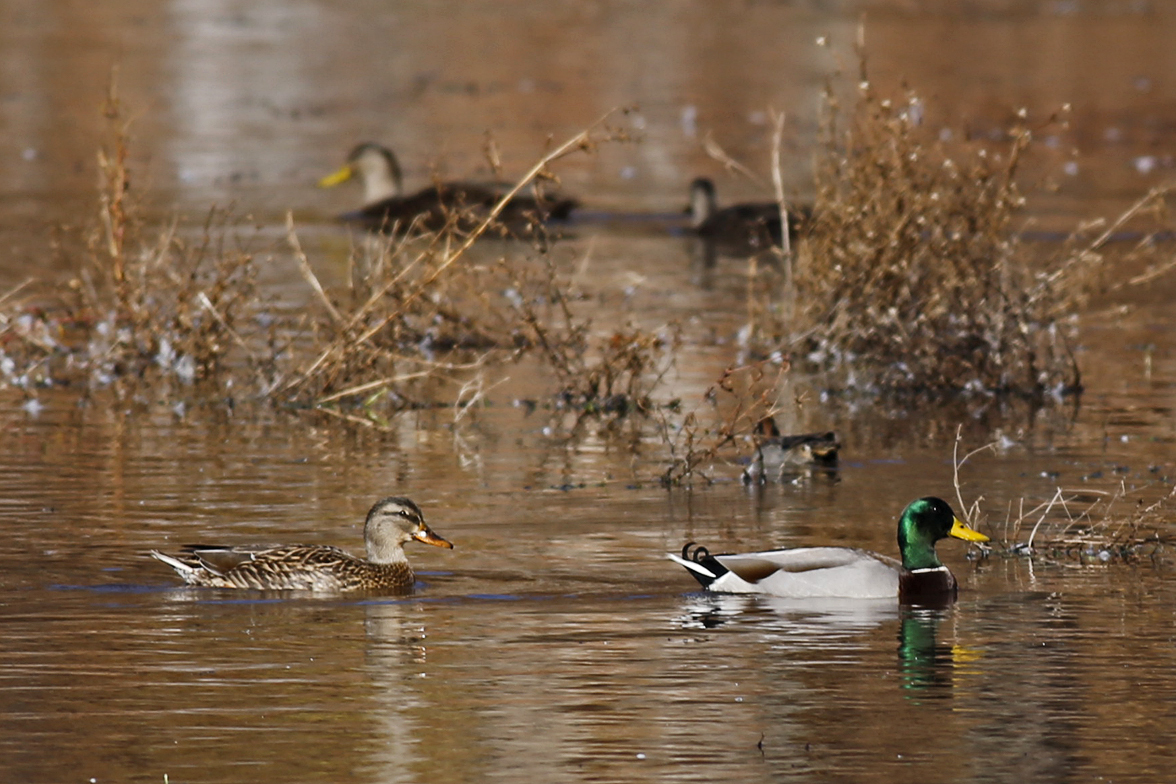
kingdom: Animalia
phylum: Chordata
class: Aves
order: Anseriformes
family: Anatidae
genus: Anas
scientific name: Anas platyrhynchos
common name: Mallard
